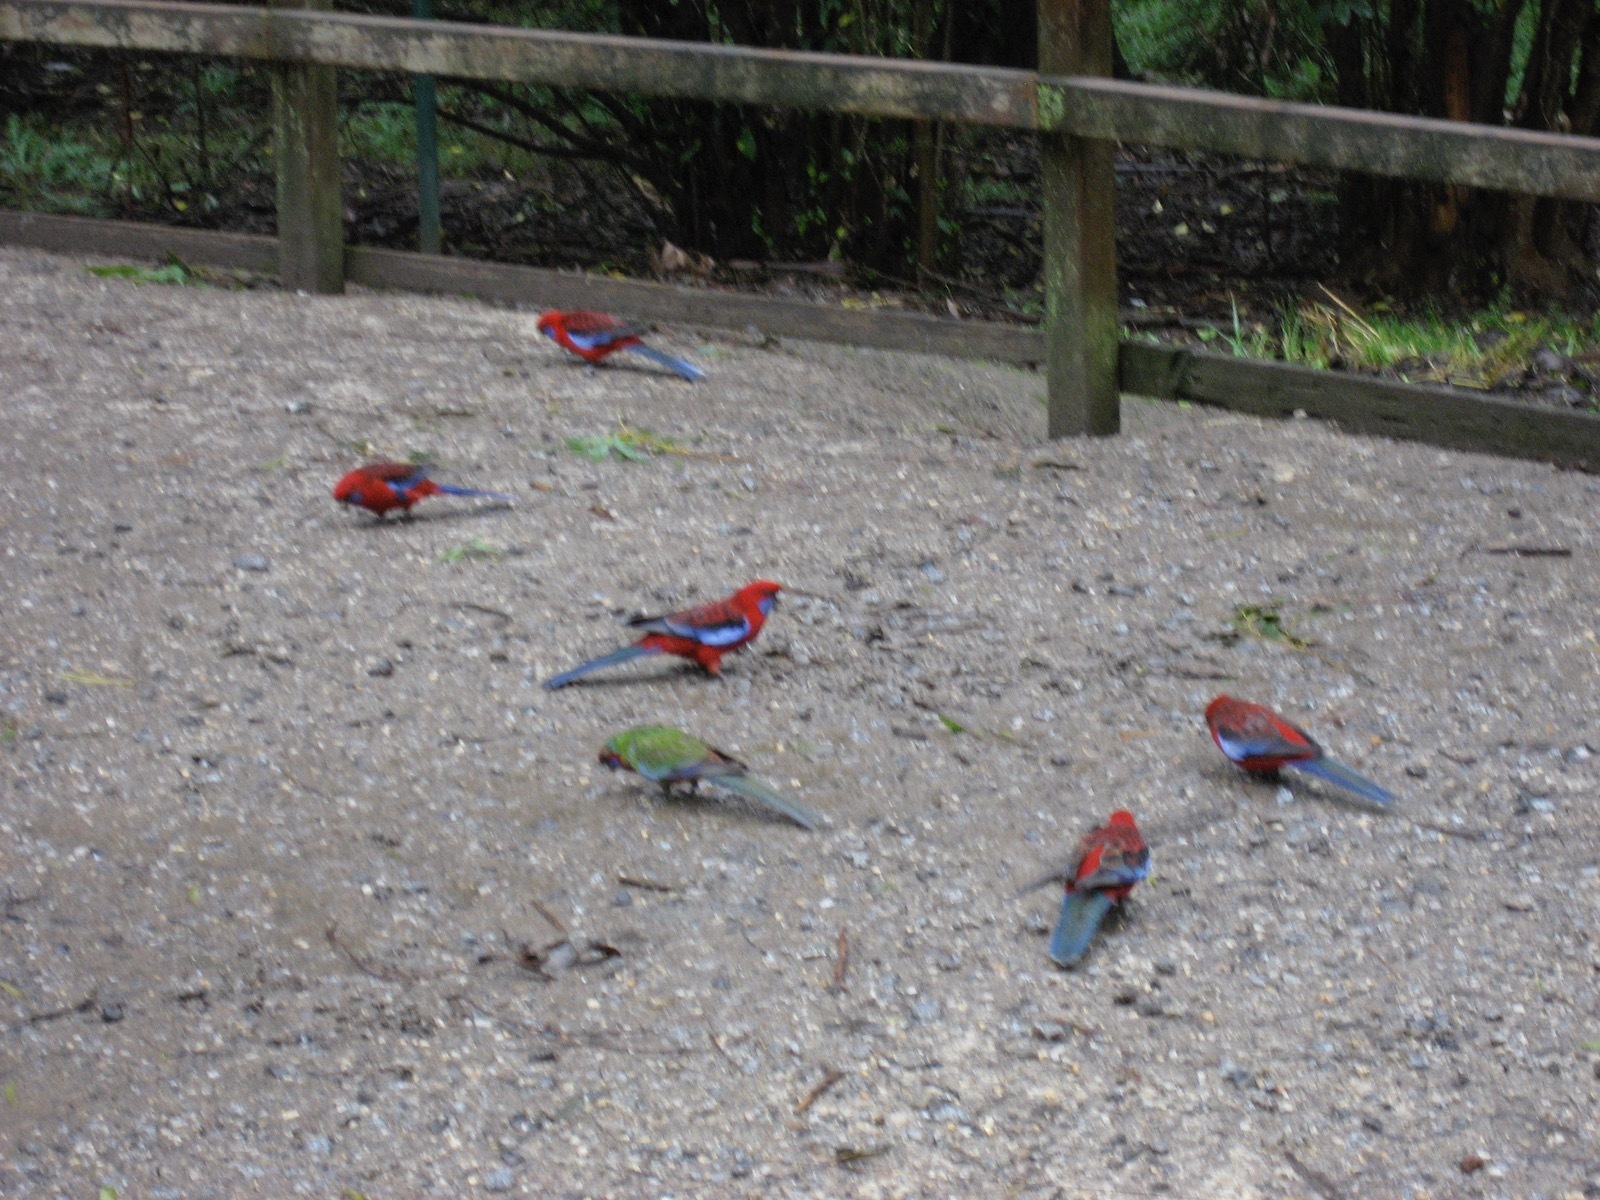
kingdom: Animalia
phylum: Chordata
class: Aves
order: Psittaciformes
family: Psittacidae
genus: Platycercus
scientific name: Platycercus elegans
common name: Crimson rosella
